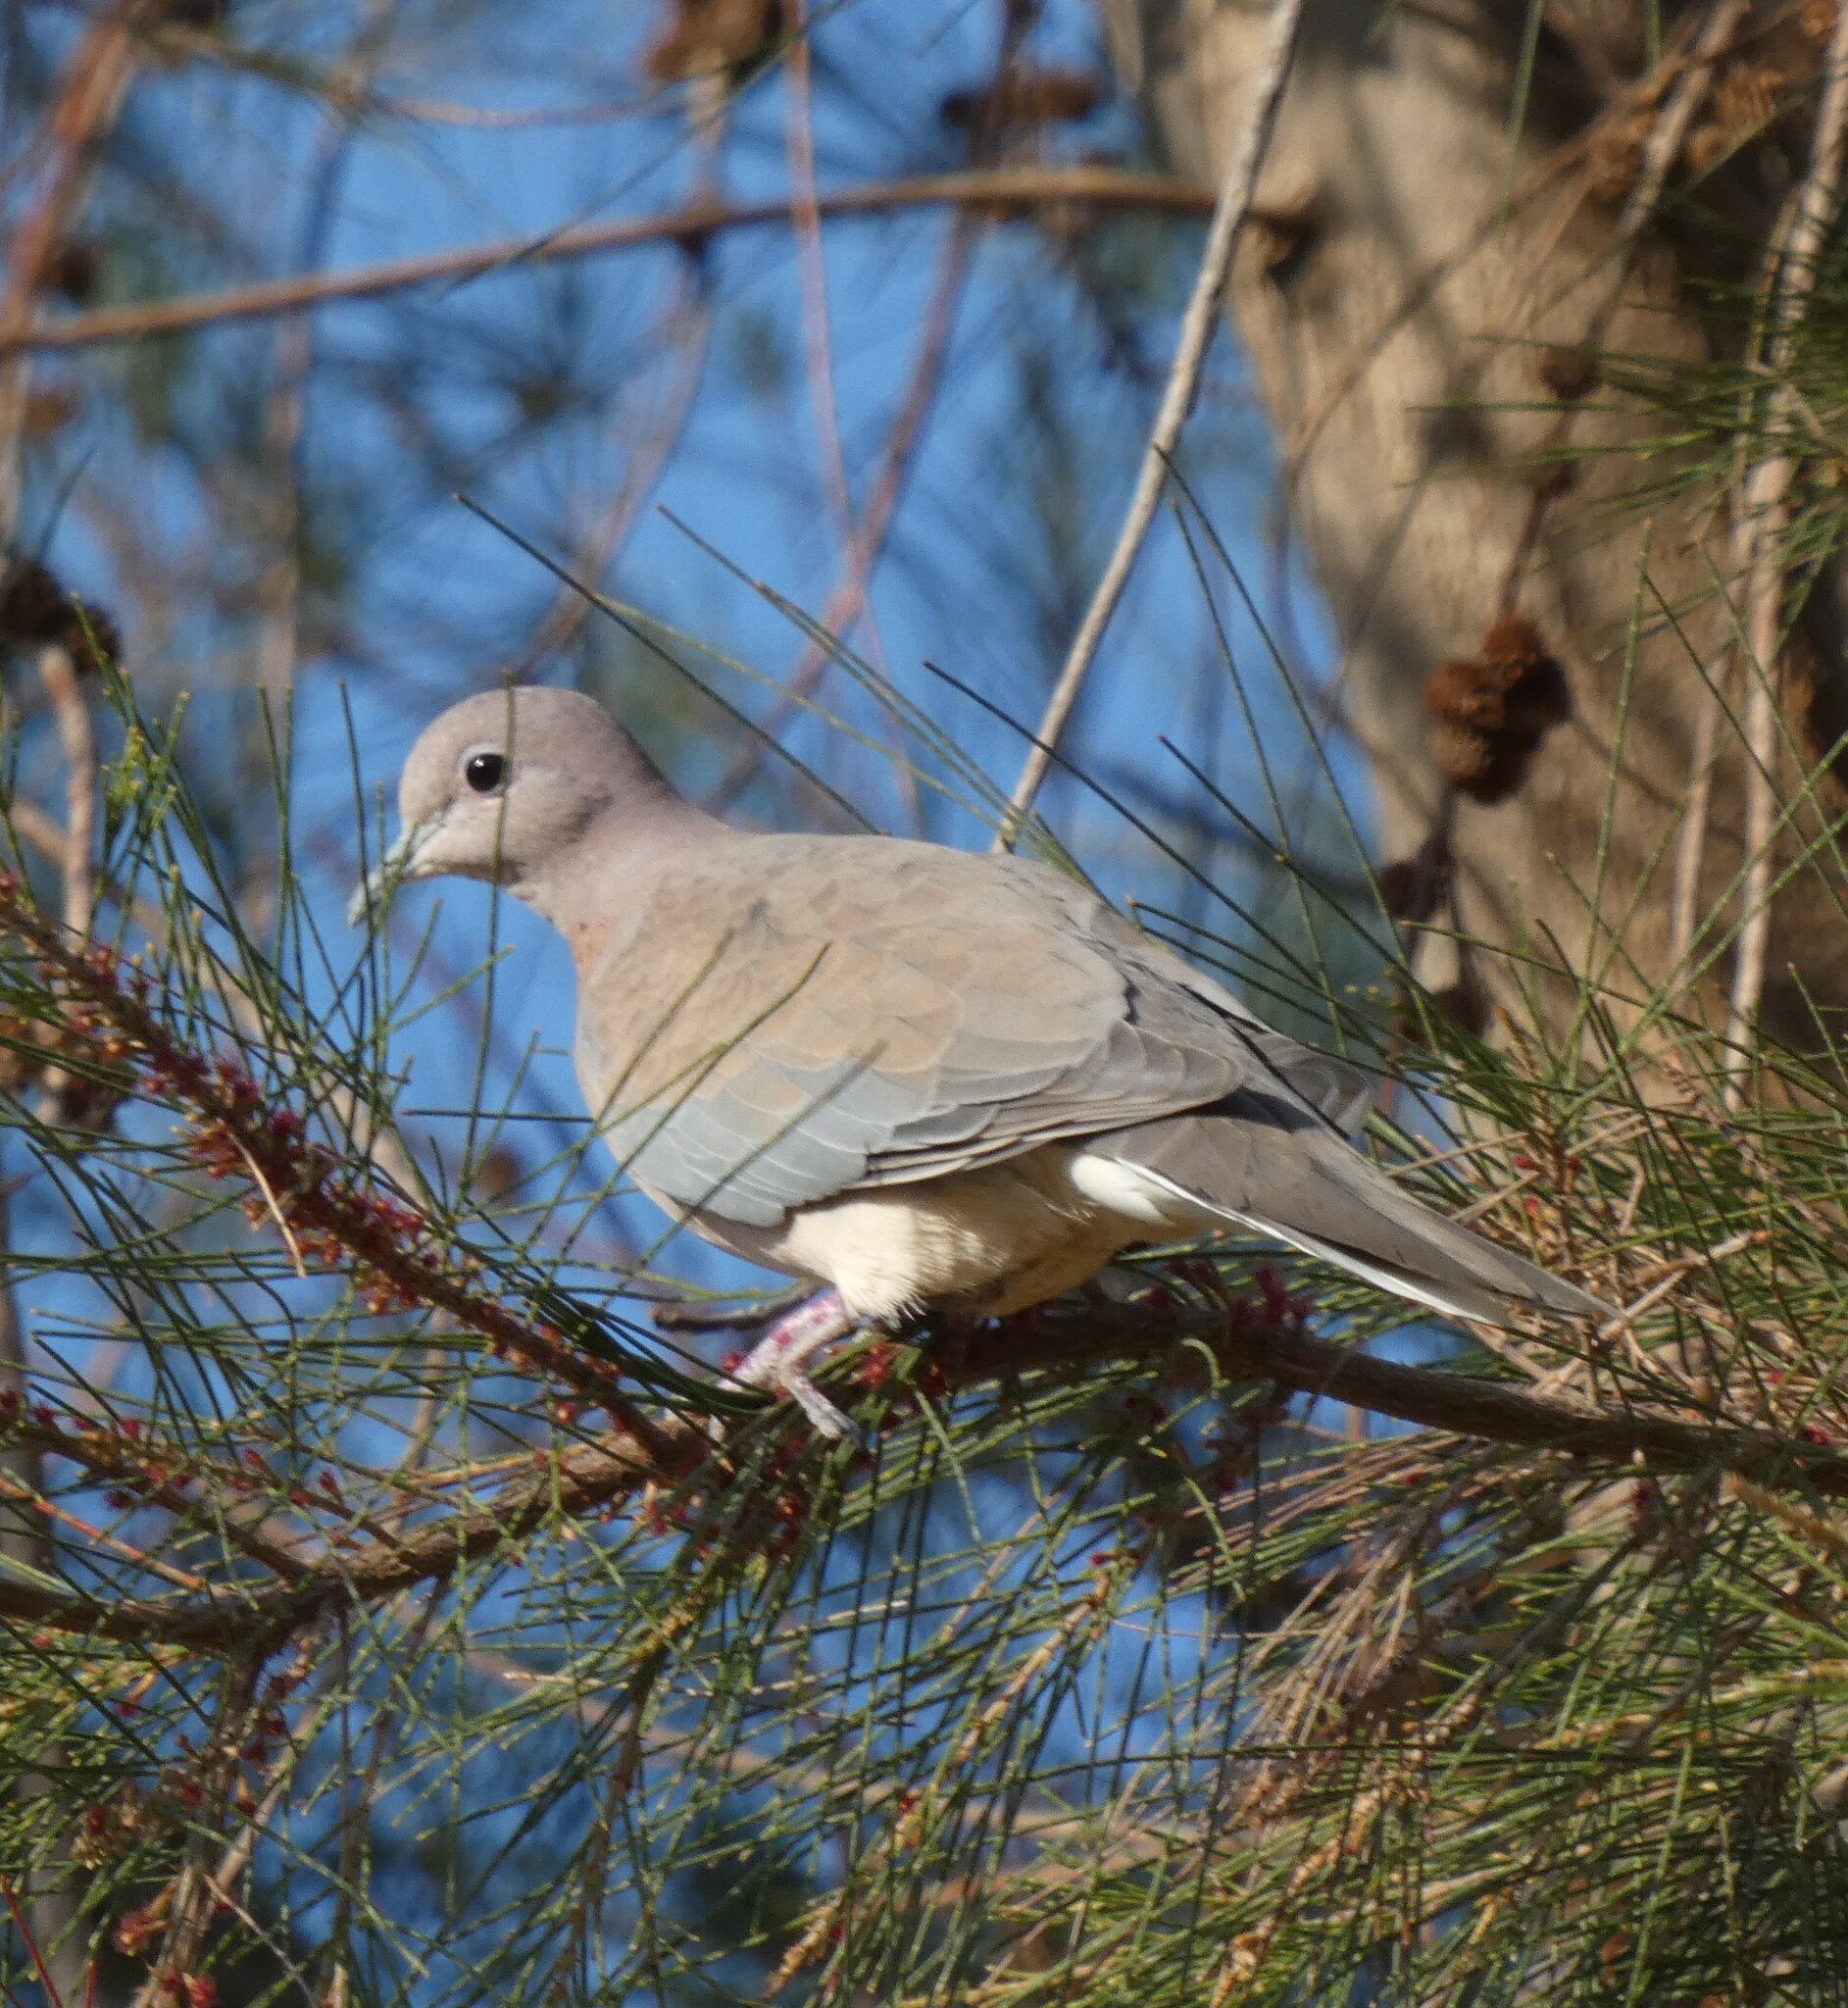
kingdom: Animalia
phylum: Chordata
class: Aves
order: Columbiformes
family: Columbidae
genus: Spilopelia
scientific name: Spilopelia senegalensis
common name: Laughing dove
